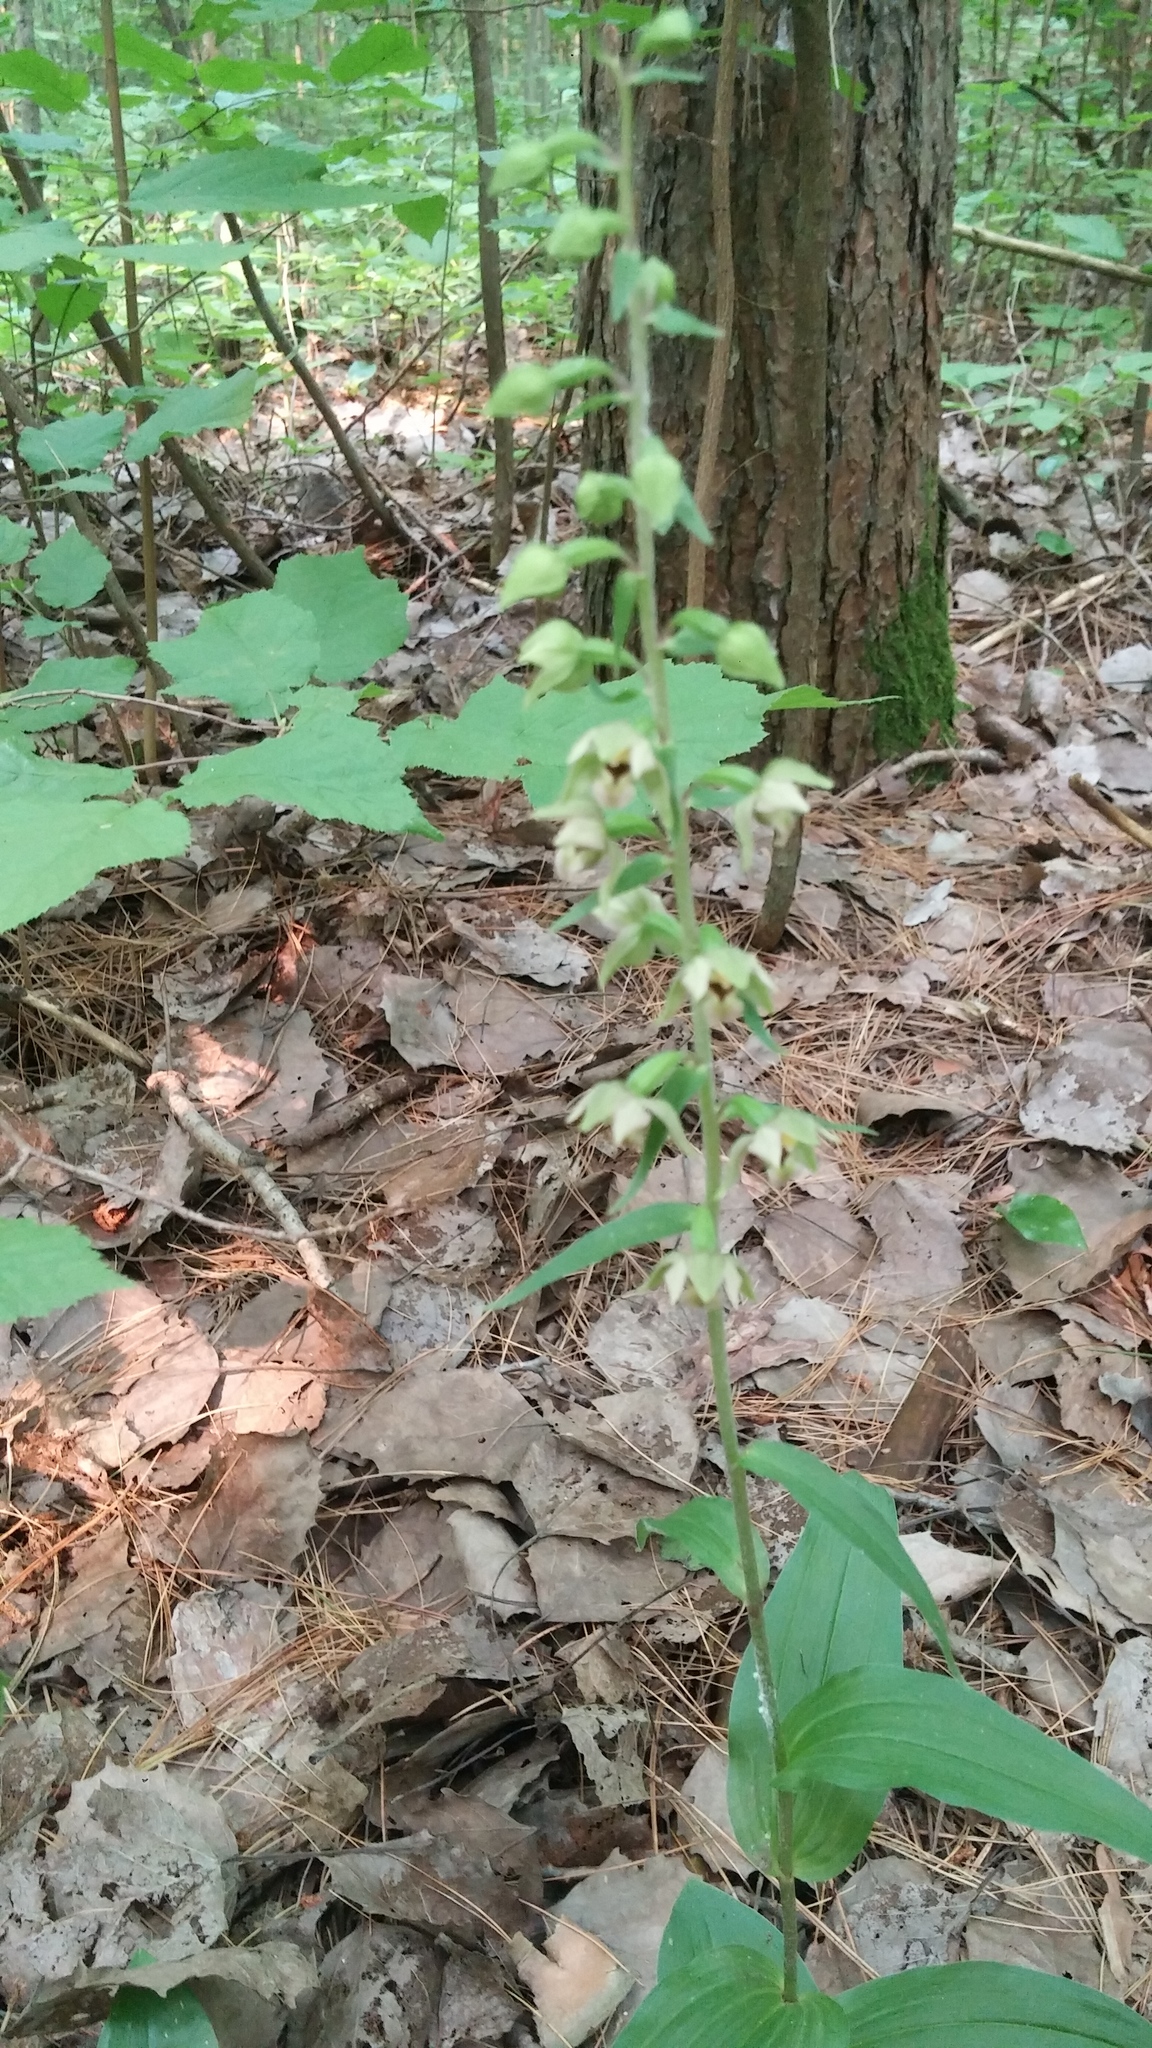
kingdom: Plantae
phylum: Tracheophyta
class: Liliopsida
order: Asparagales
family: Orchidaceae
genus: Epipactis
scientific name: Epipactis helleborine
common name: Broad-leaved helleborine
